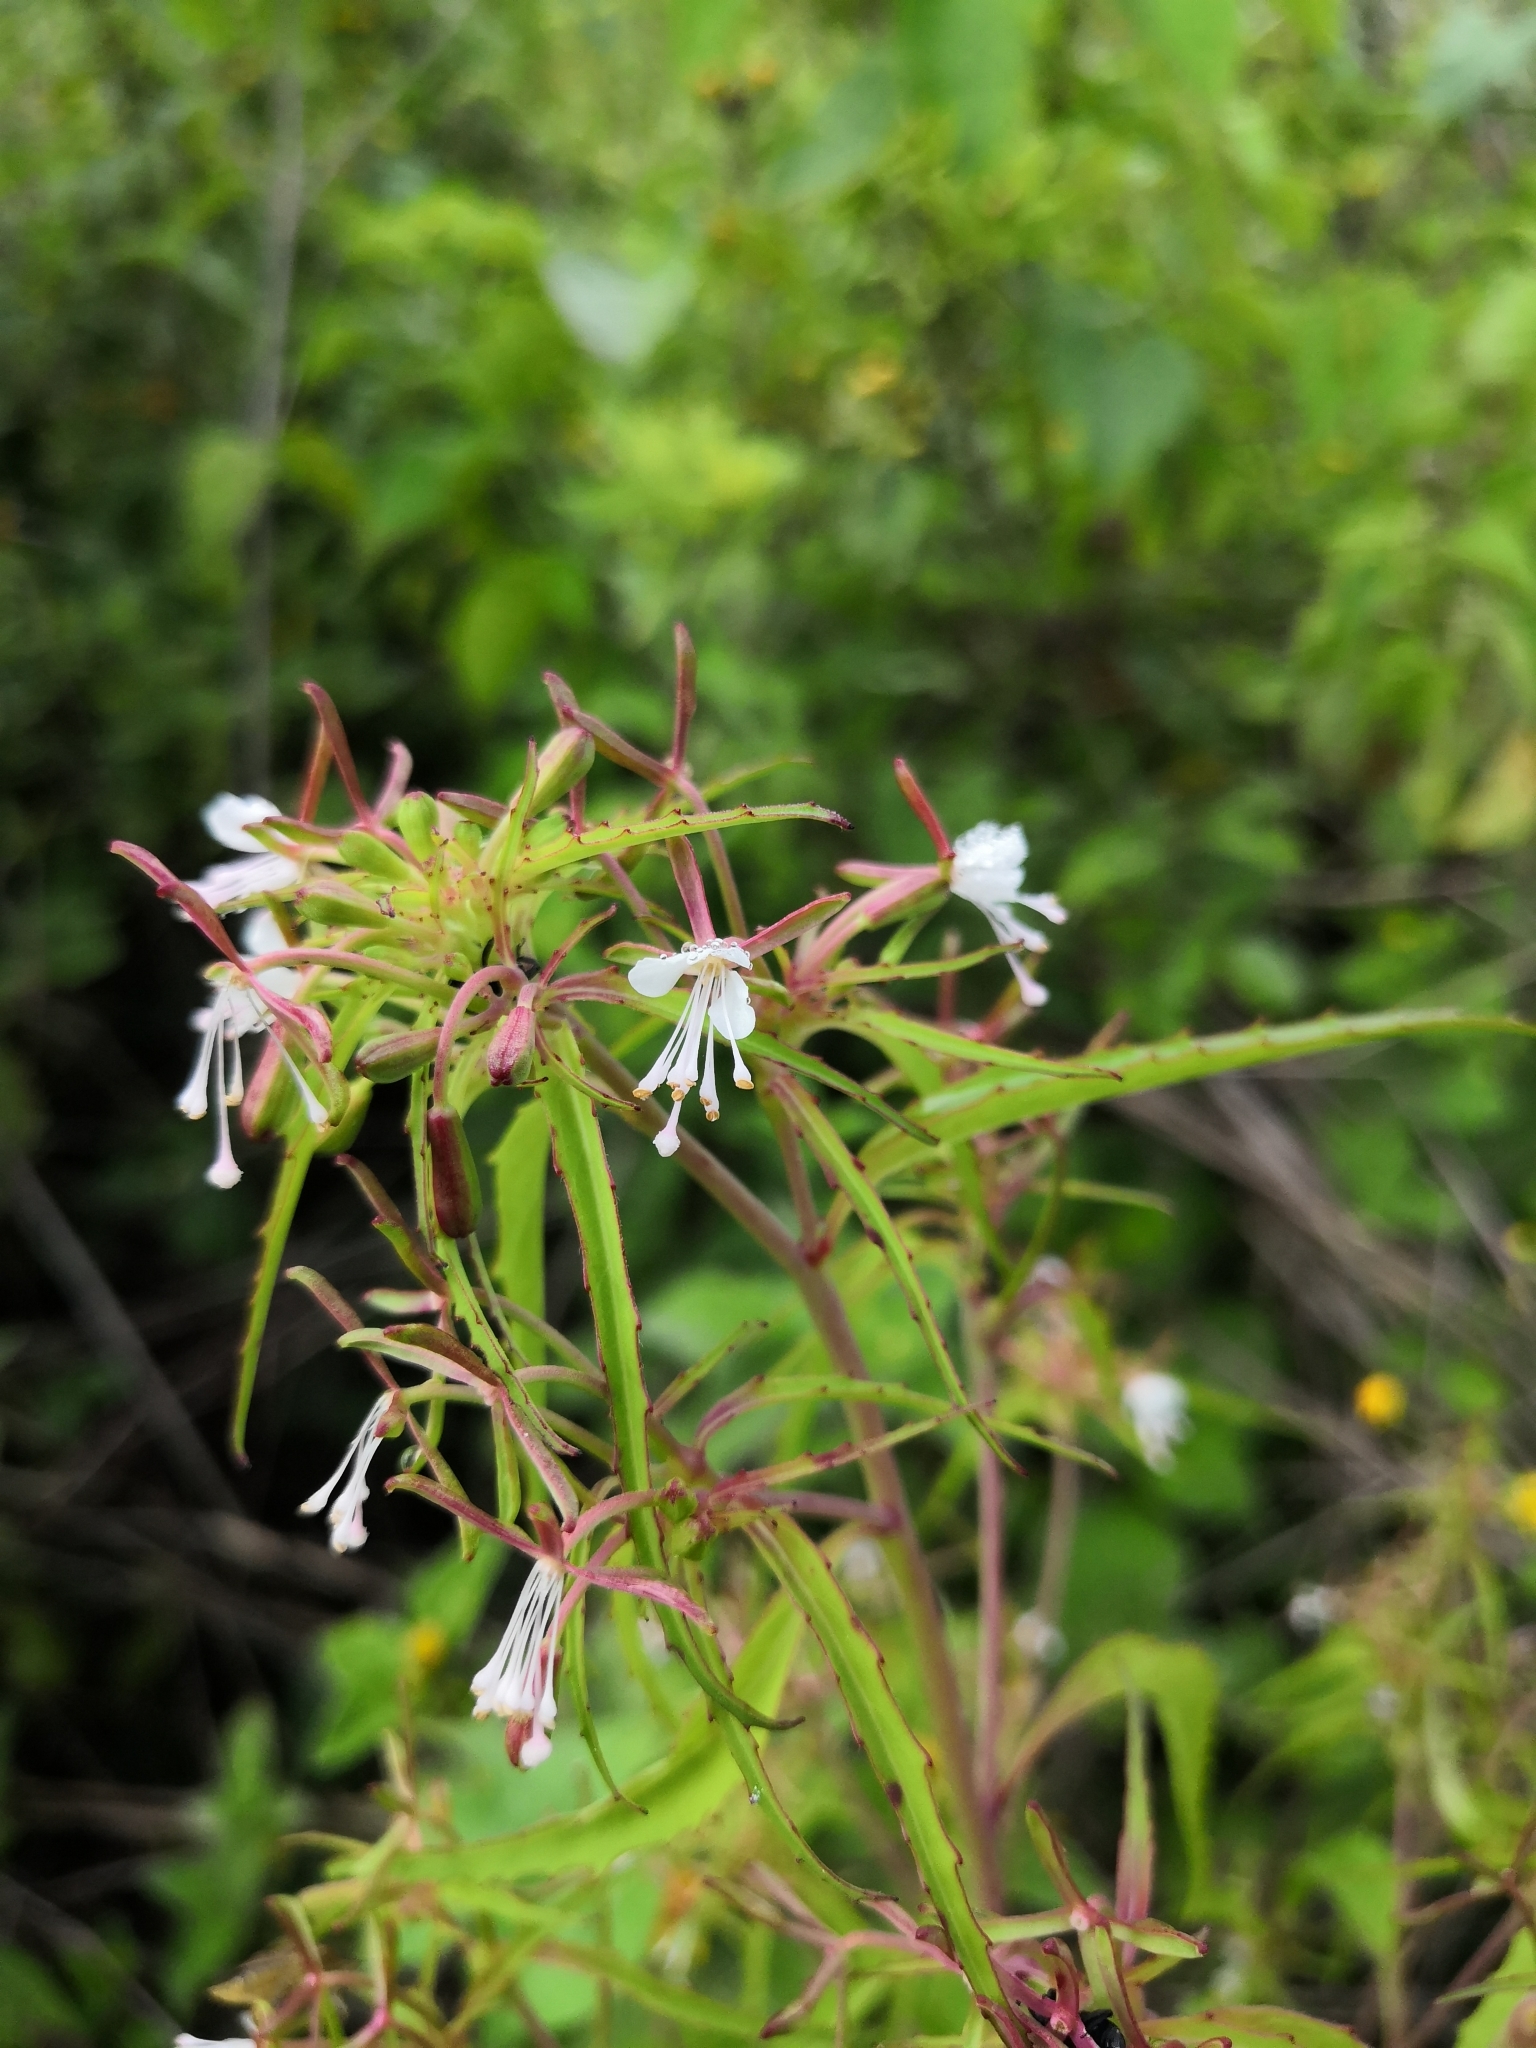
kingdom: Plantae
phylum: Tracheophyta
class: Magnoliopsida
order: Myrtales
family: Onagraceae
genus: Gongylocarpus
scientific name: Gongylocarpus rubricaulis
